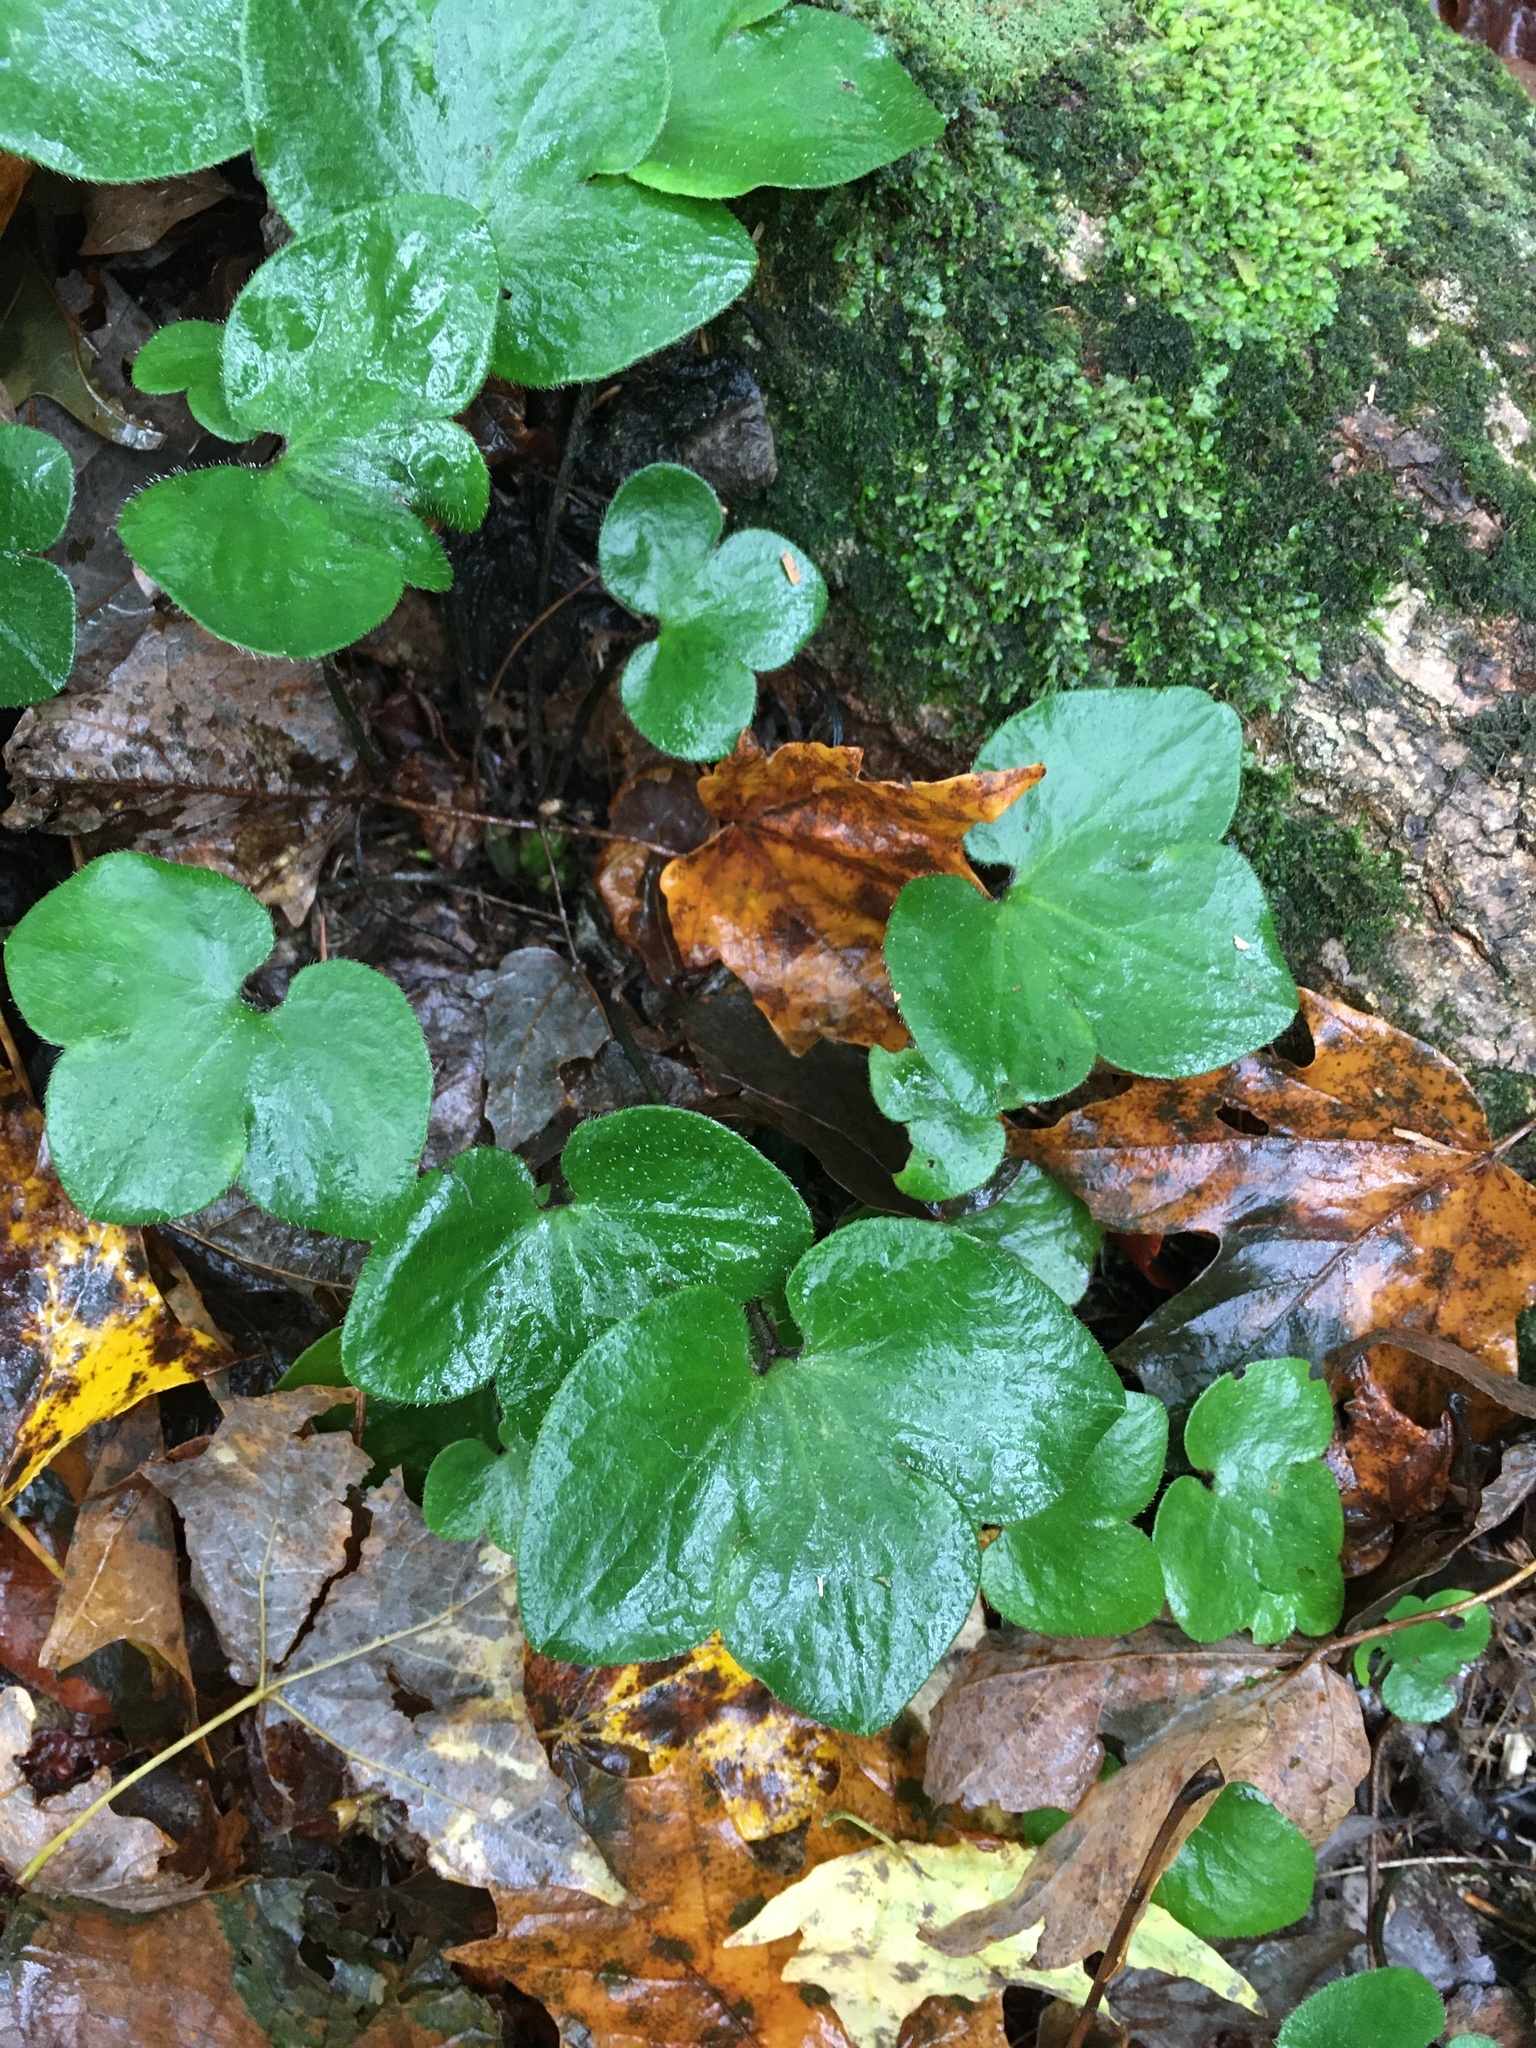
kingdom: Plantae
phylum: Tracheophyta
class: Magnoliopsida
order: Ranunculales
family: Ranunculaceae
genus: Hepatica
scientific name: Hepatica americana
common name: American hepatica
